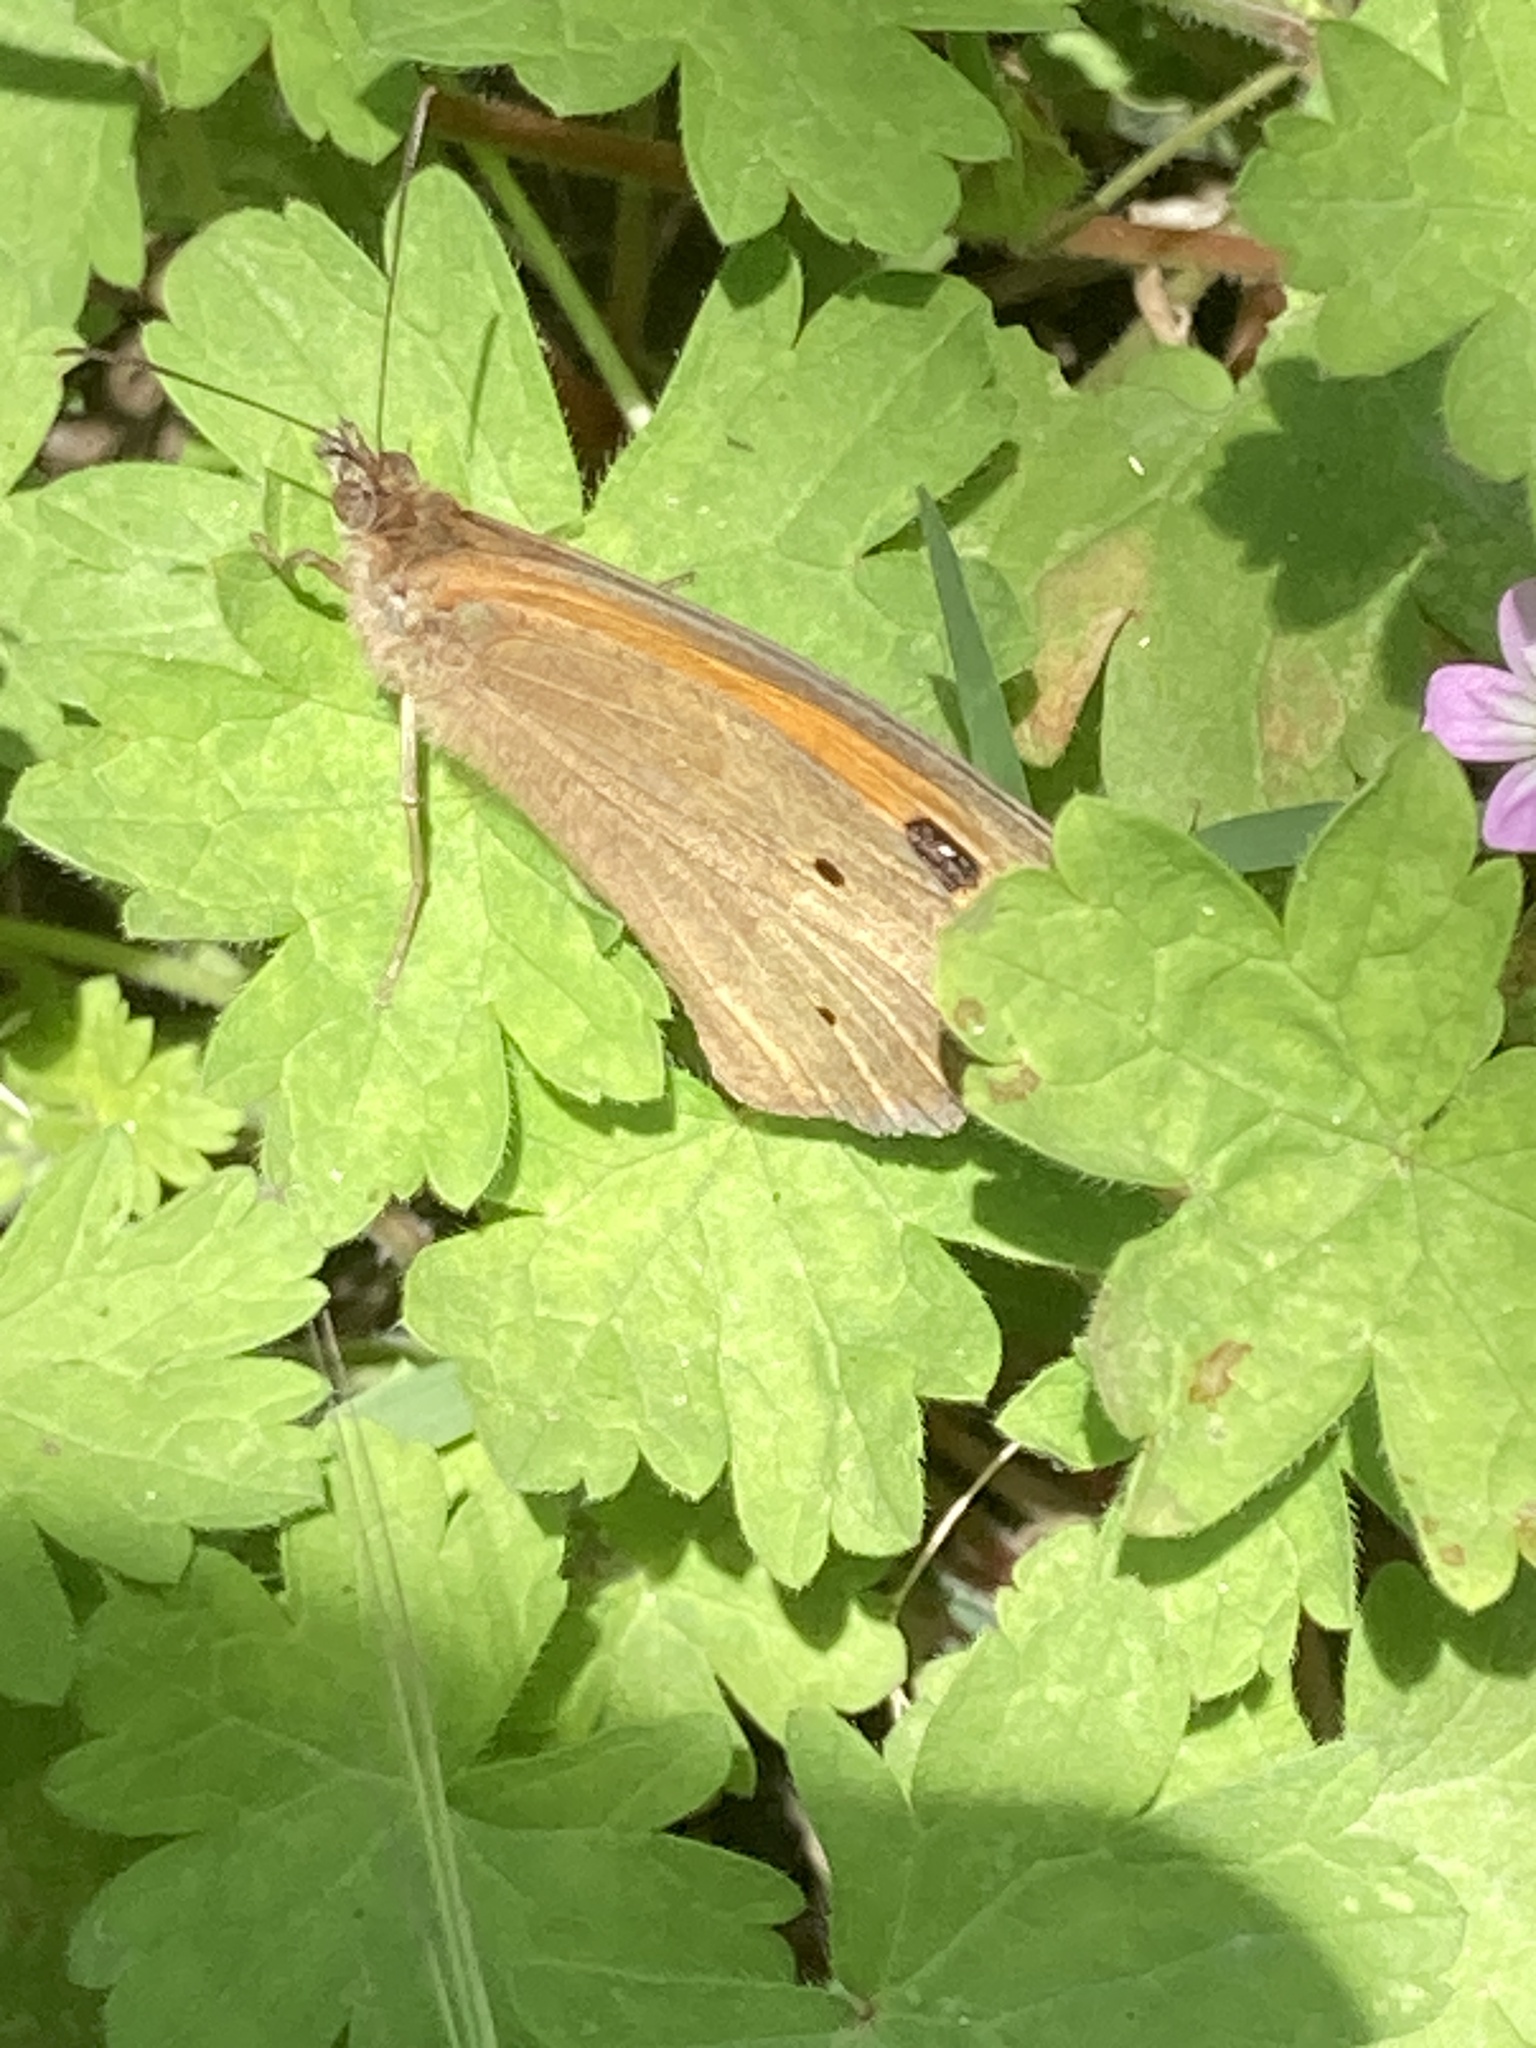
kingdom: Animalia
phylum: Arthropoda
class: Insecta
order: Lepidoptera
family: Nymphalidae
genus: Maniola
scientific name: Maniola jurtina
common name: Meadow brown
